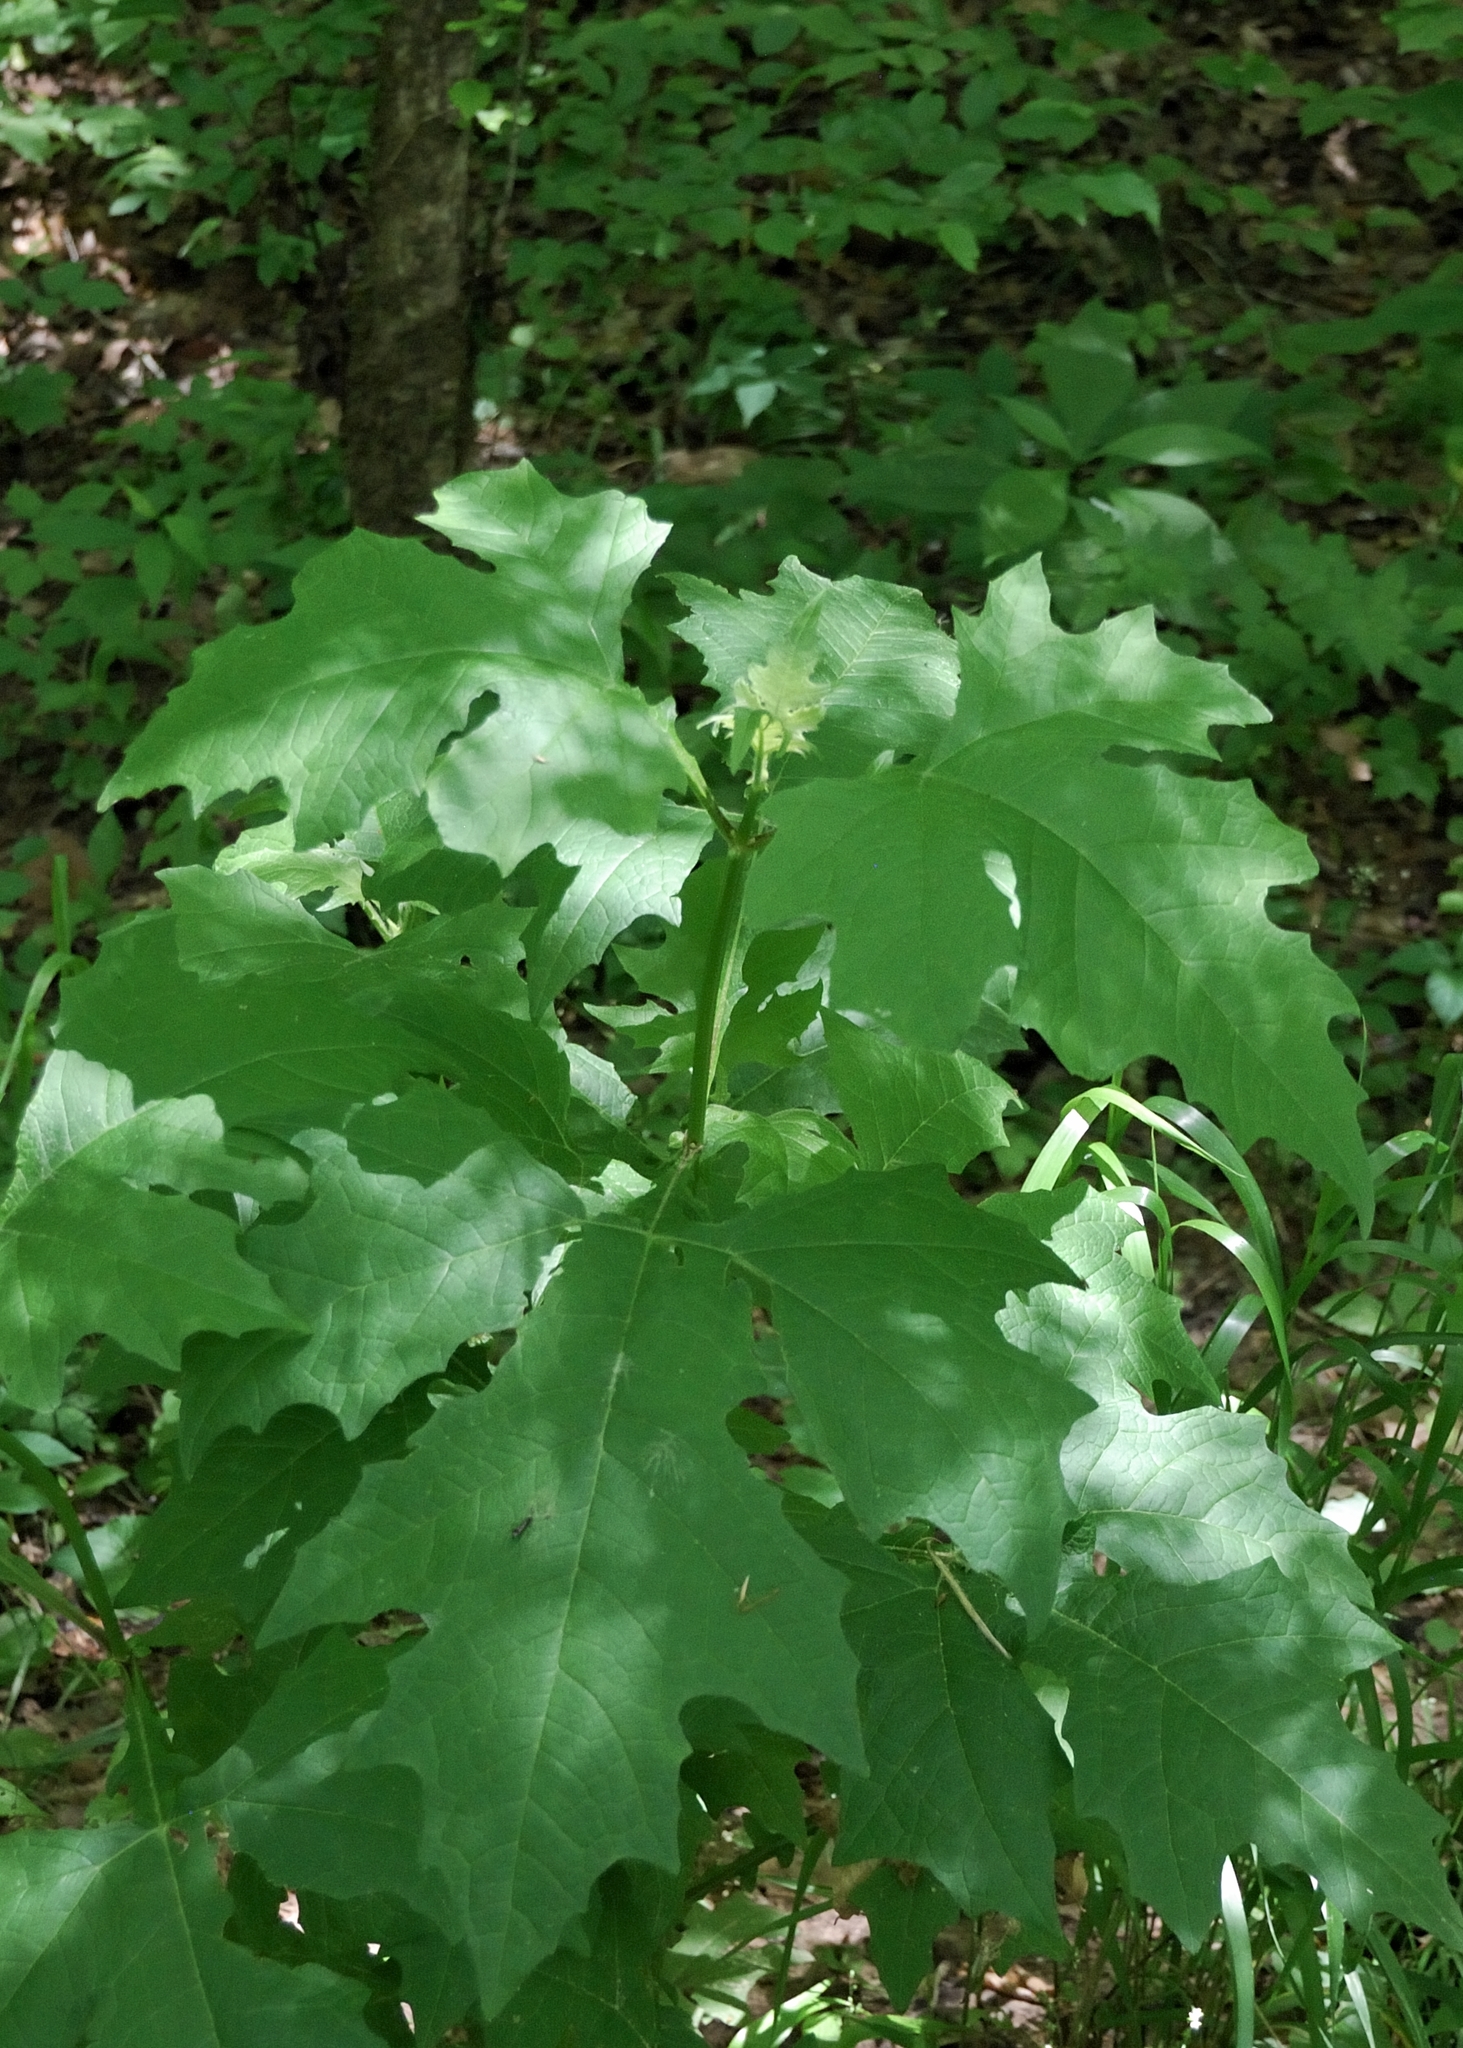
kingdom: Plantae
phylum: Tracheophyta
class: Magnoliopsida
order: Asterales
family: Asteraceae
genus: Smallanthus
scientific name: Smallanthus uvedalia
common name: Bear's-foot
